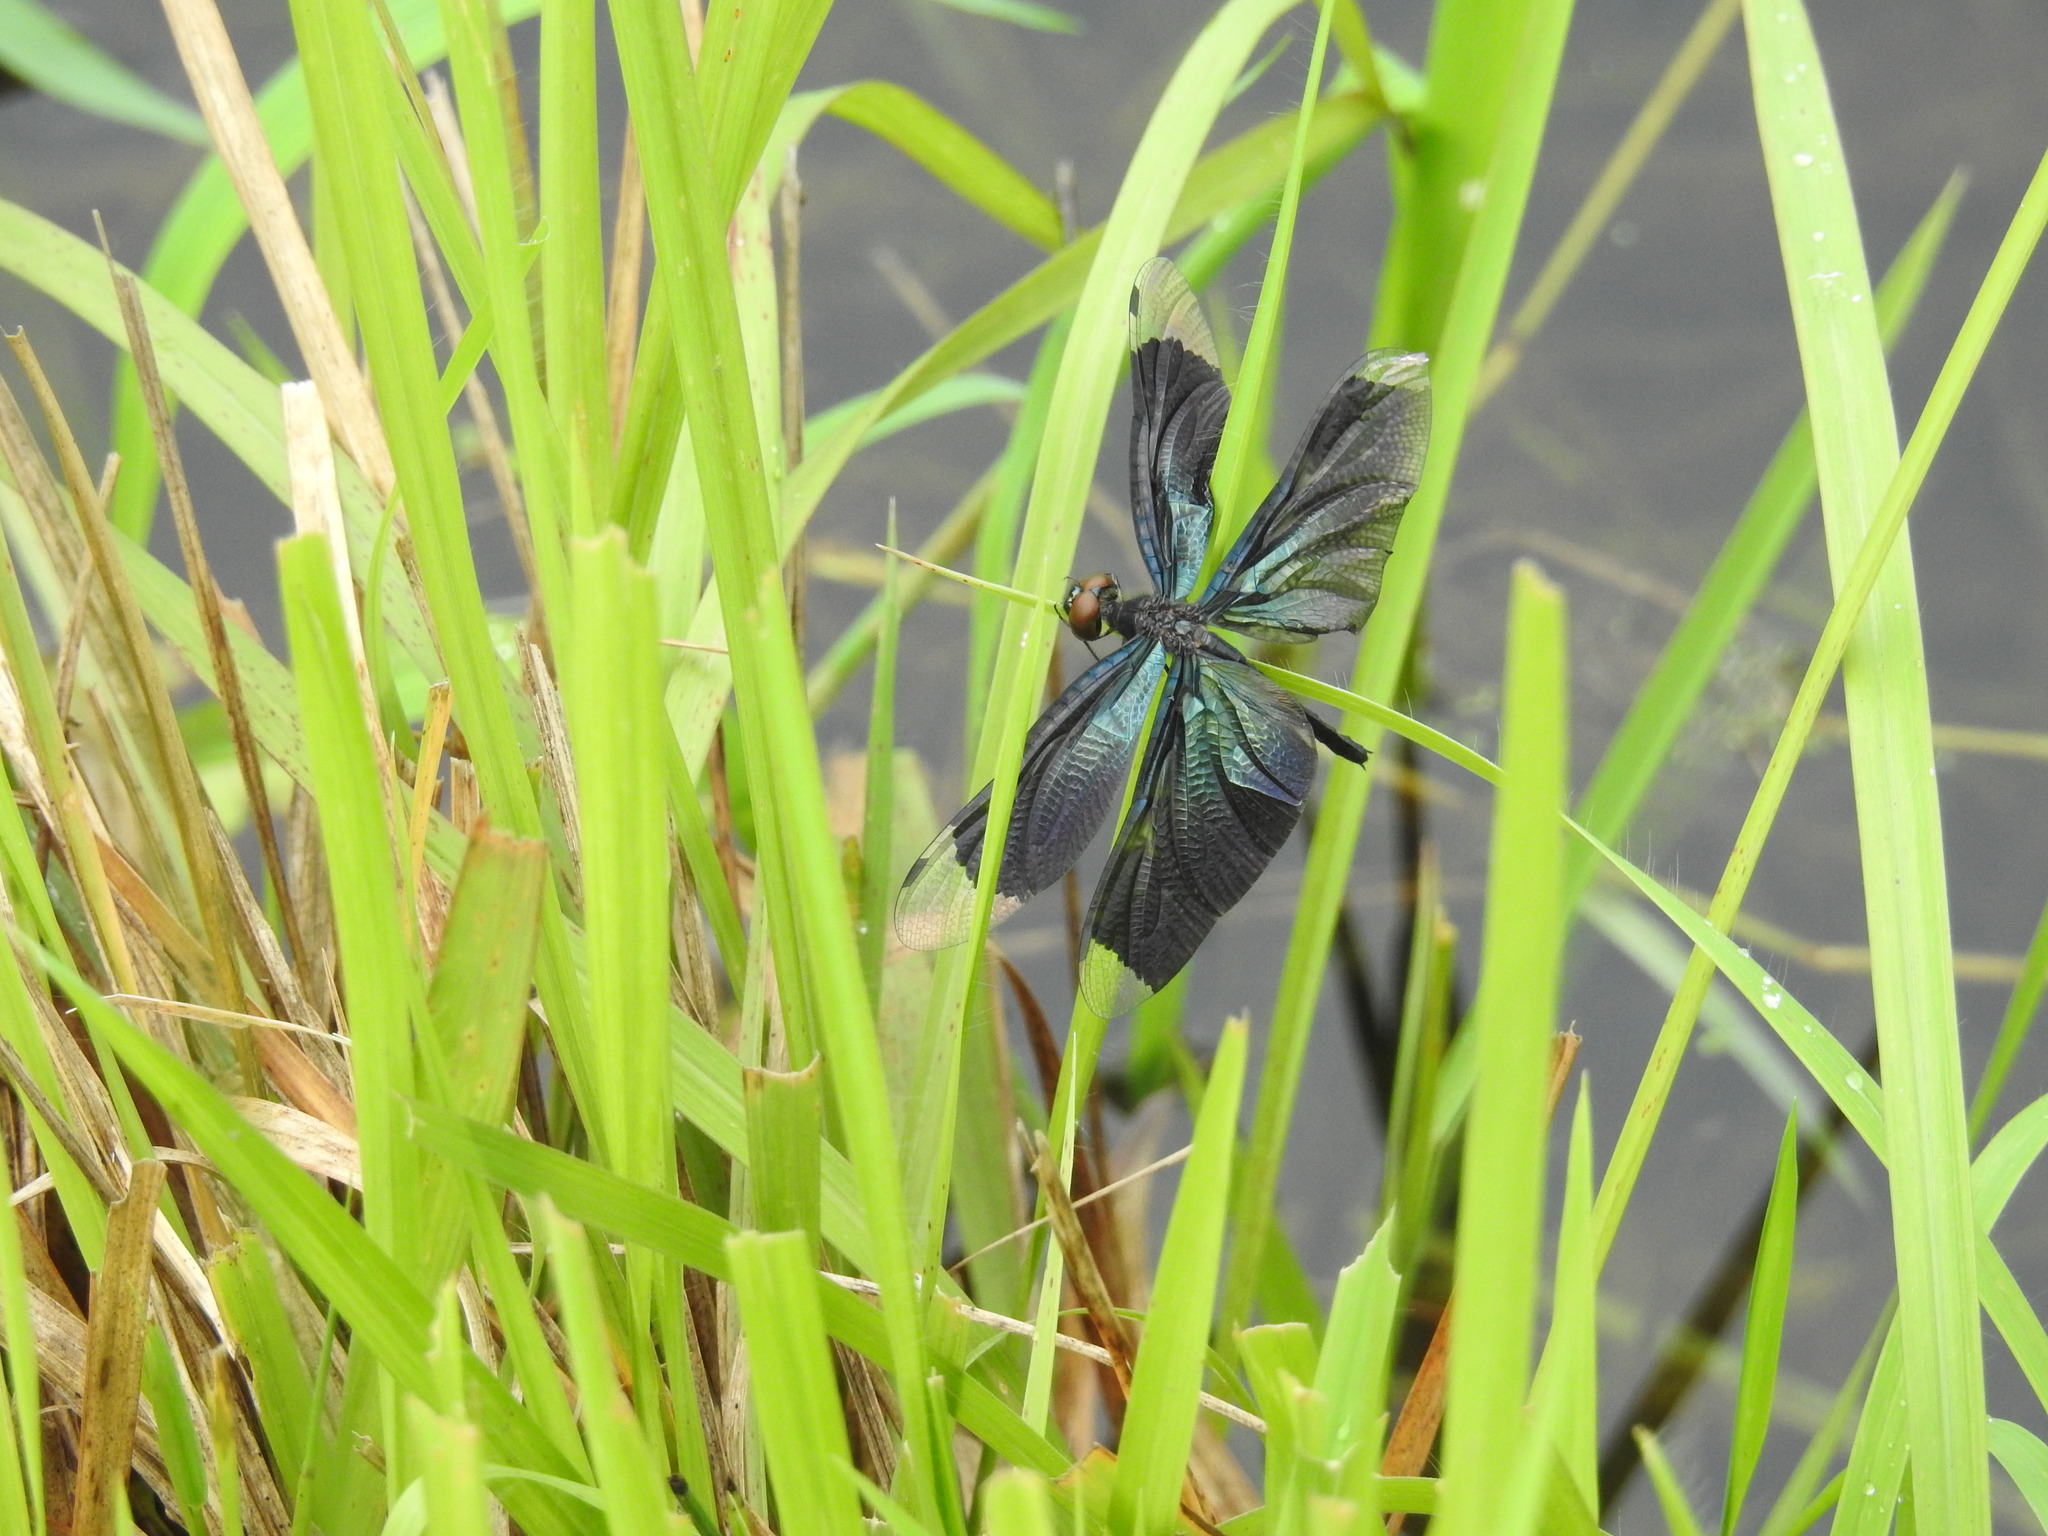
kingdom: Animalia
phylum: Arthropoda
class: Insecta
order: Odonata
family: Libellulidae
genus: Rhyothemis
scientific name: Rhyothemis plutonia
